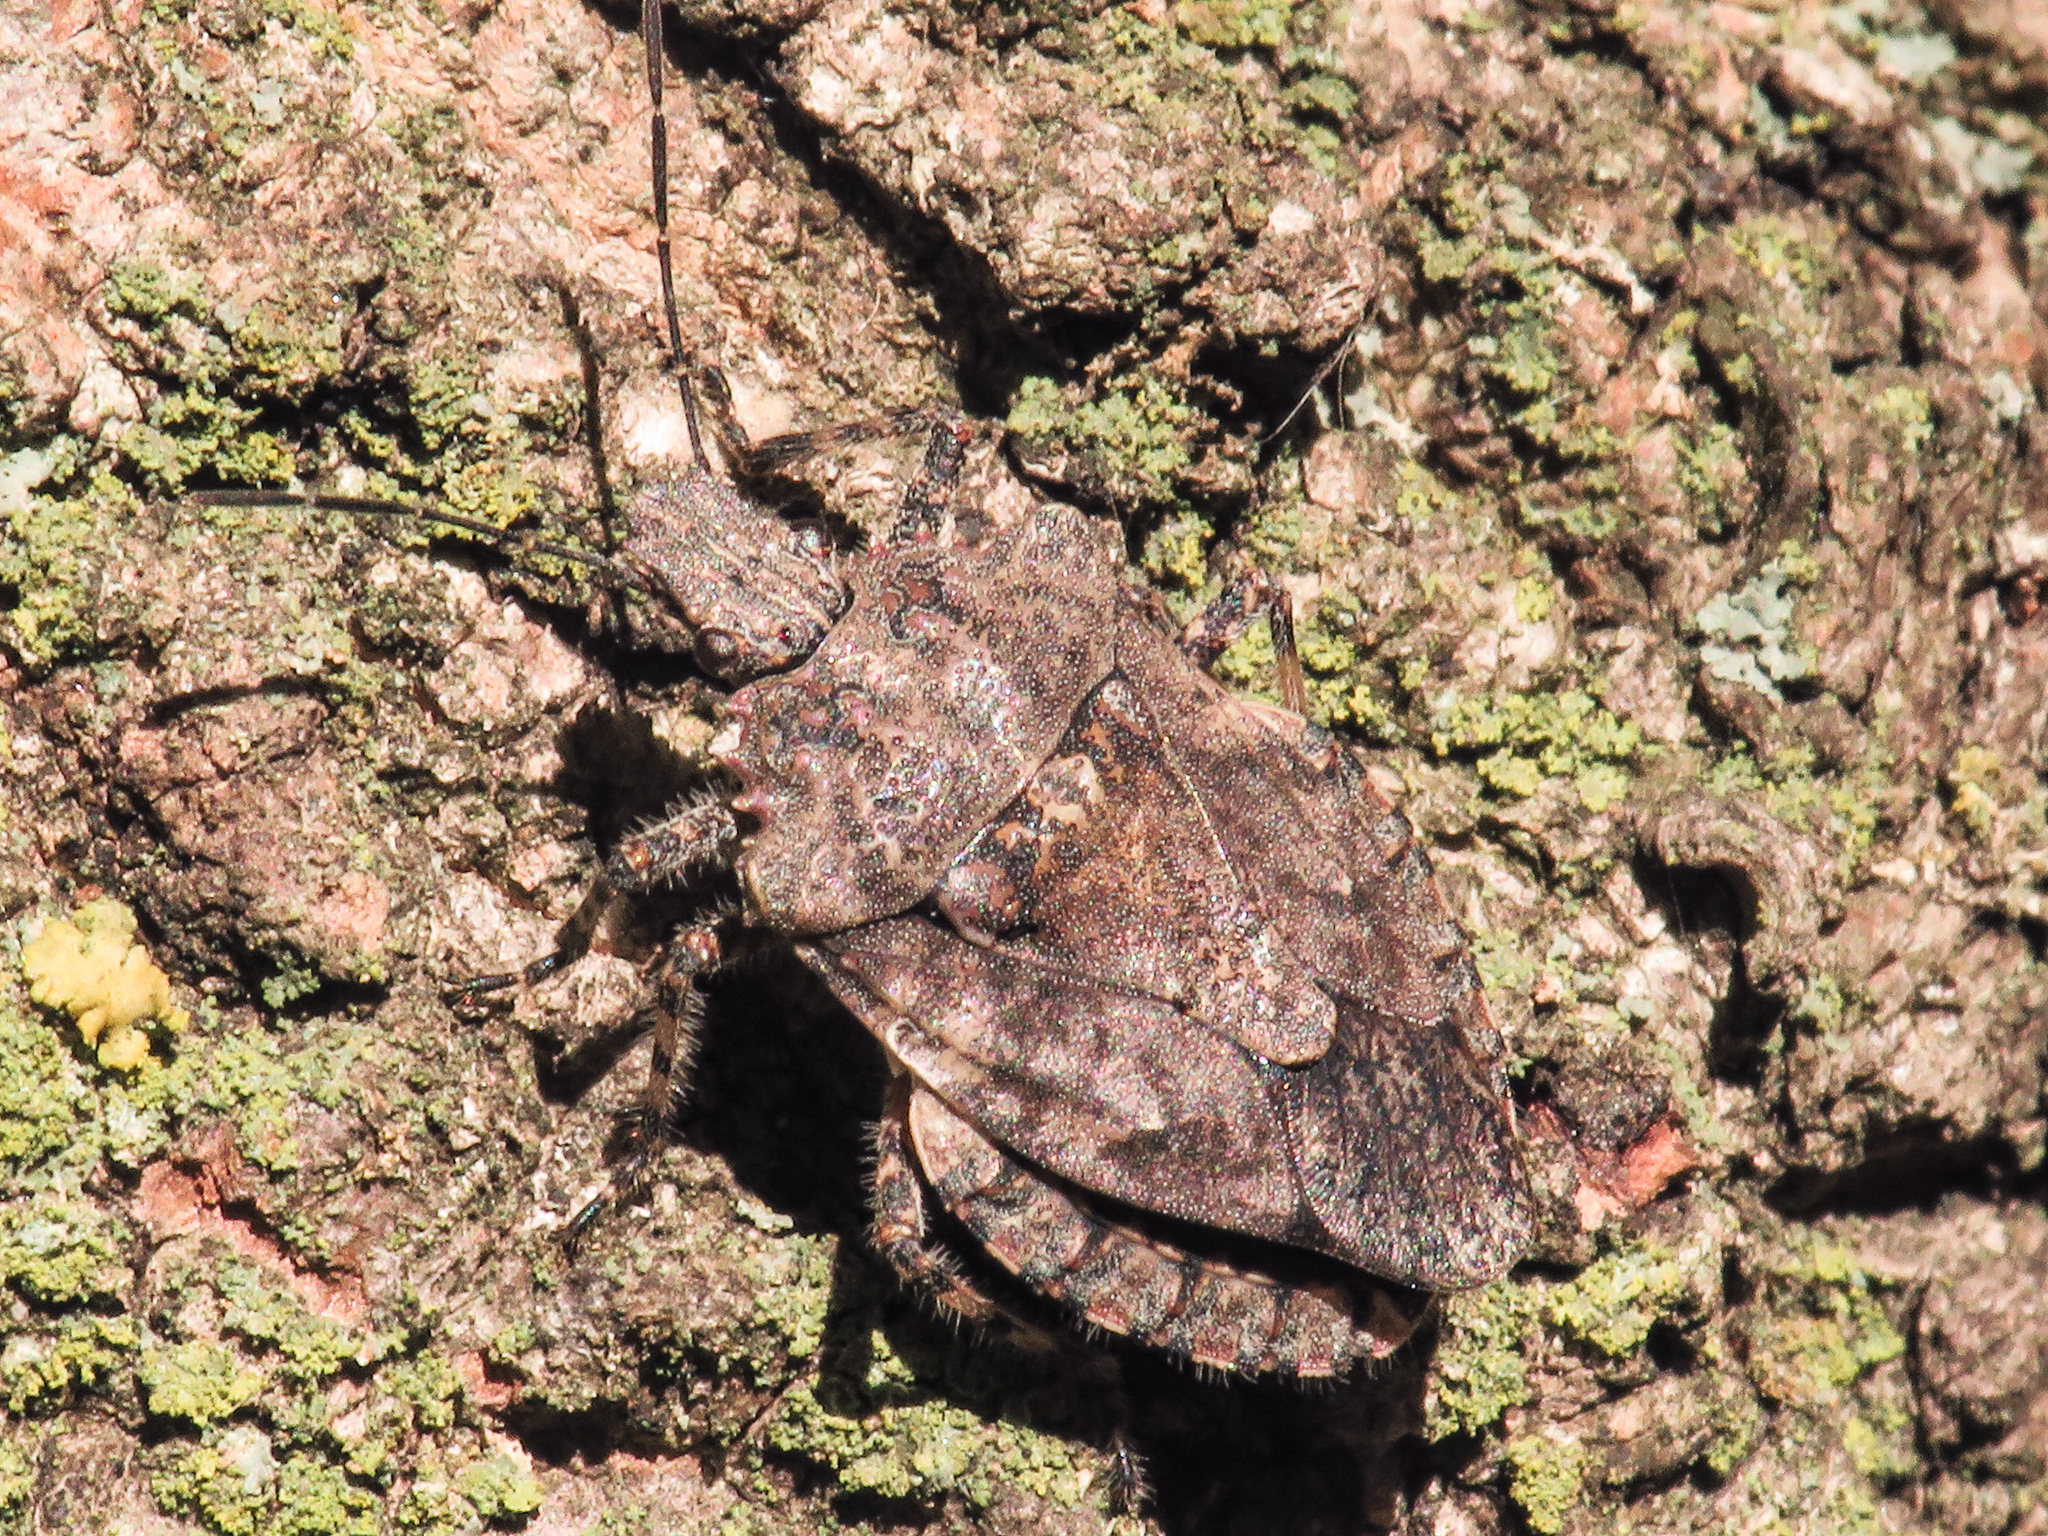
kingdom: Animalia
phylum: Arthropoda
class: Insecta
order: Hemiptera
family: Pentatomidae
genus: Brochymena
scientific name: Brochymena arborea
